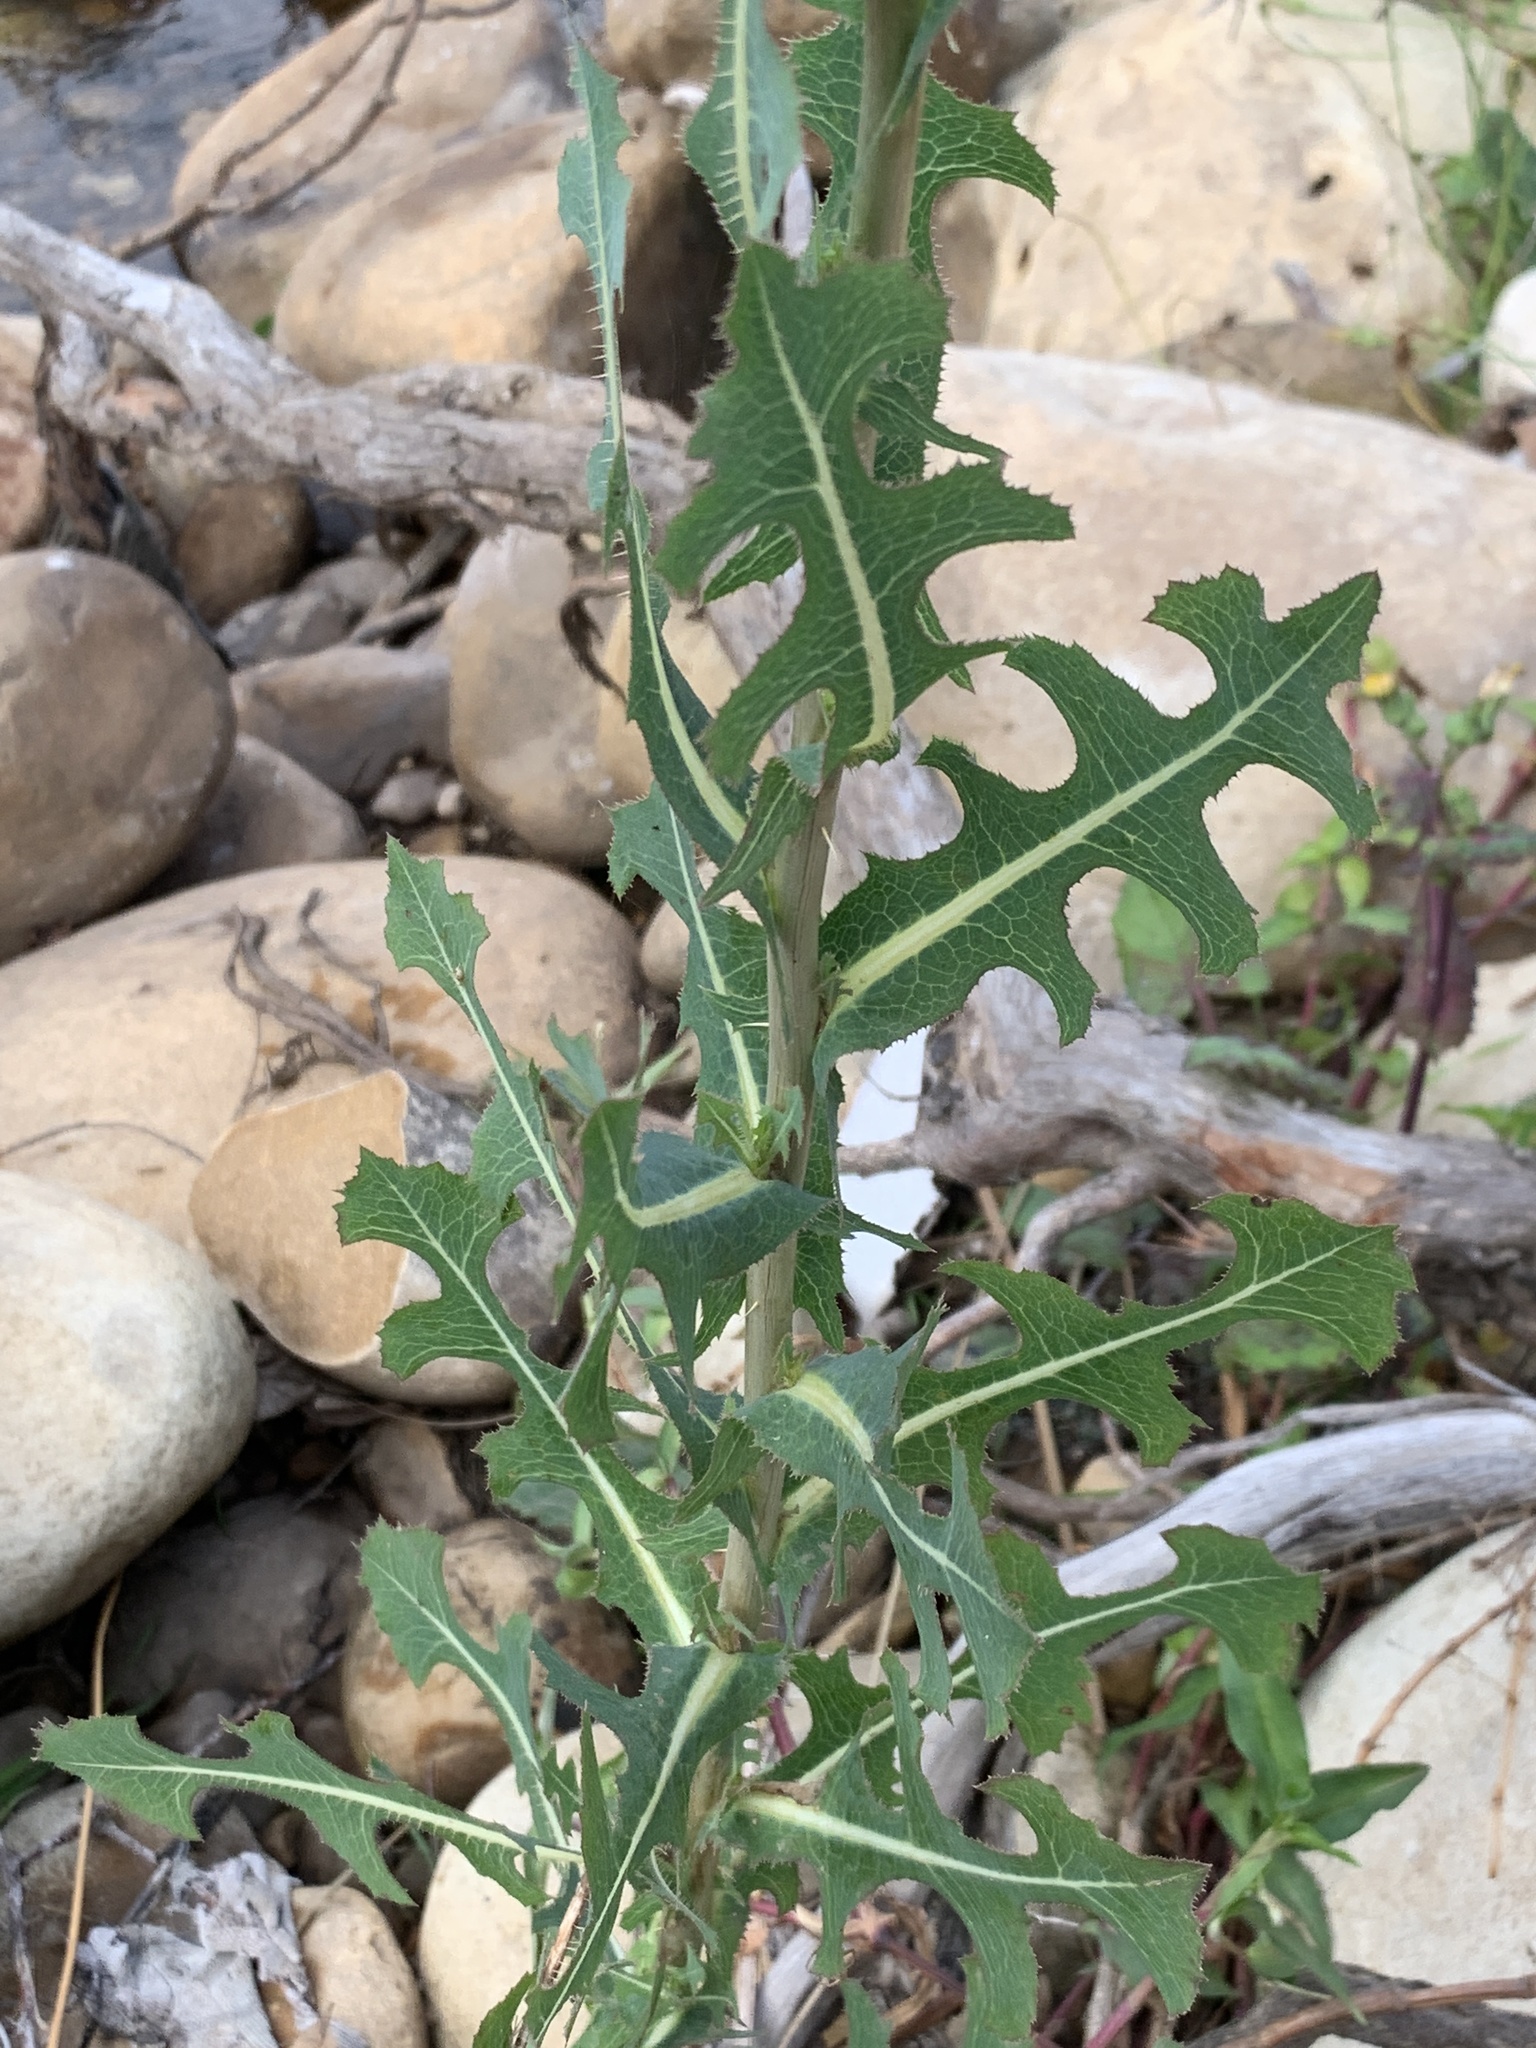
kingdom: Plantae
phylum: Tracheophyta
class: Magnoliopsida
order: Asterales
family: Asteraceae
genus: Lactuca
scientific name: Lactuca serriola
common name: Prickly lettuce
